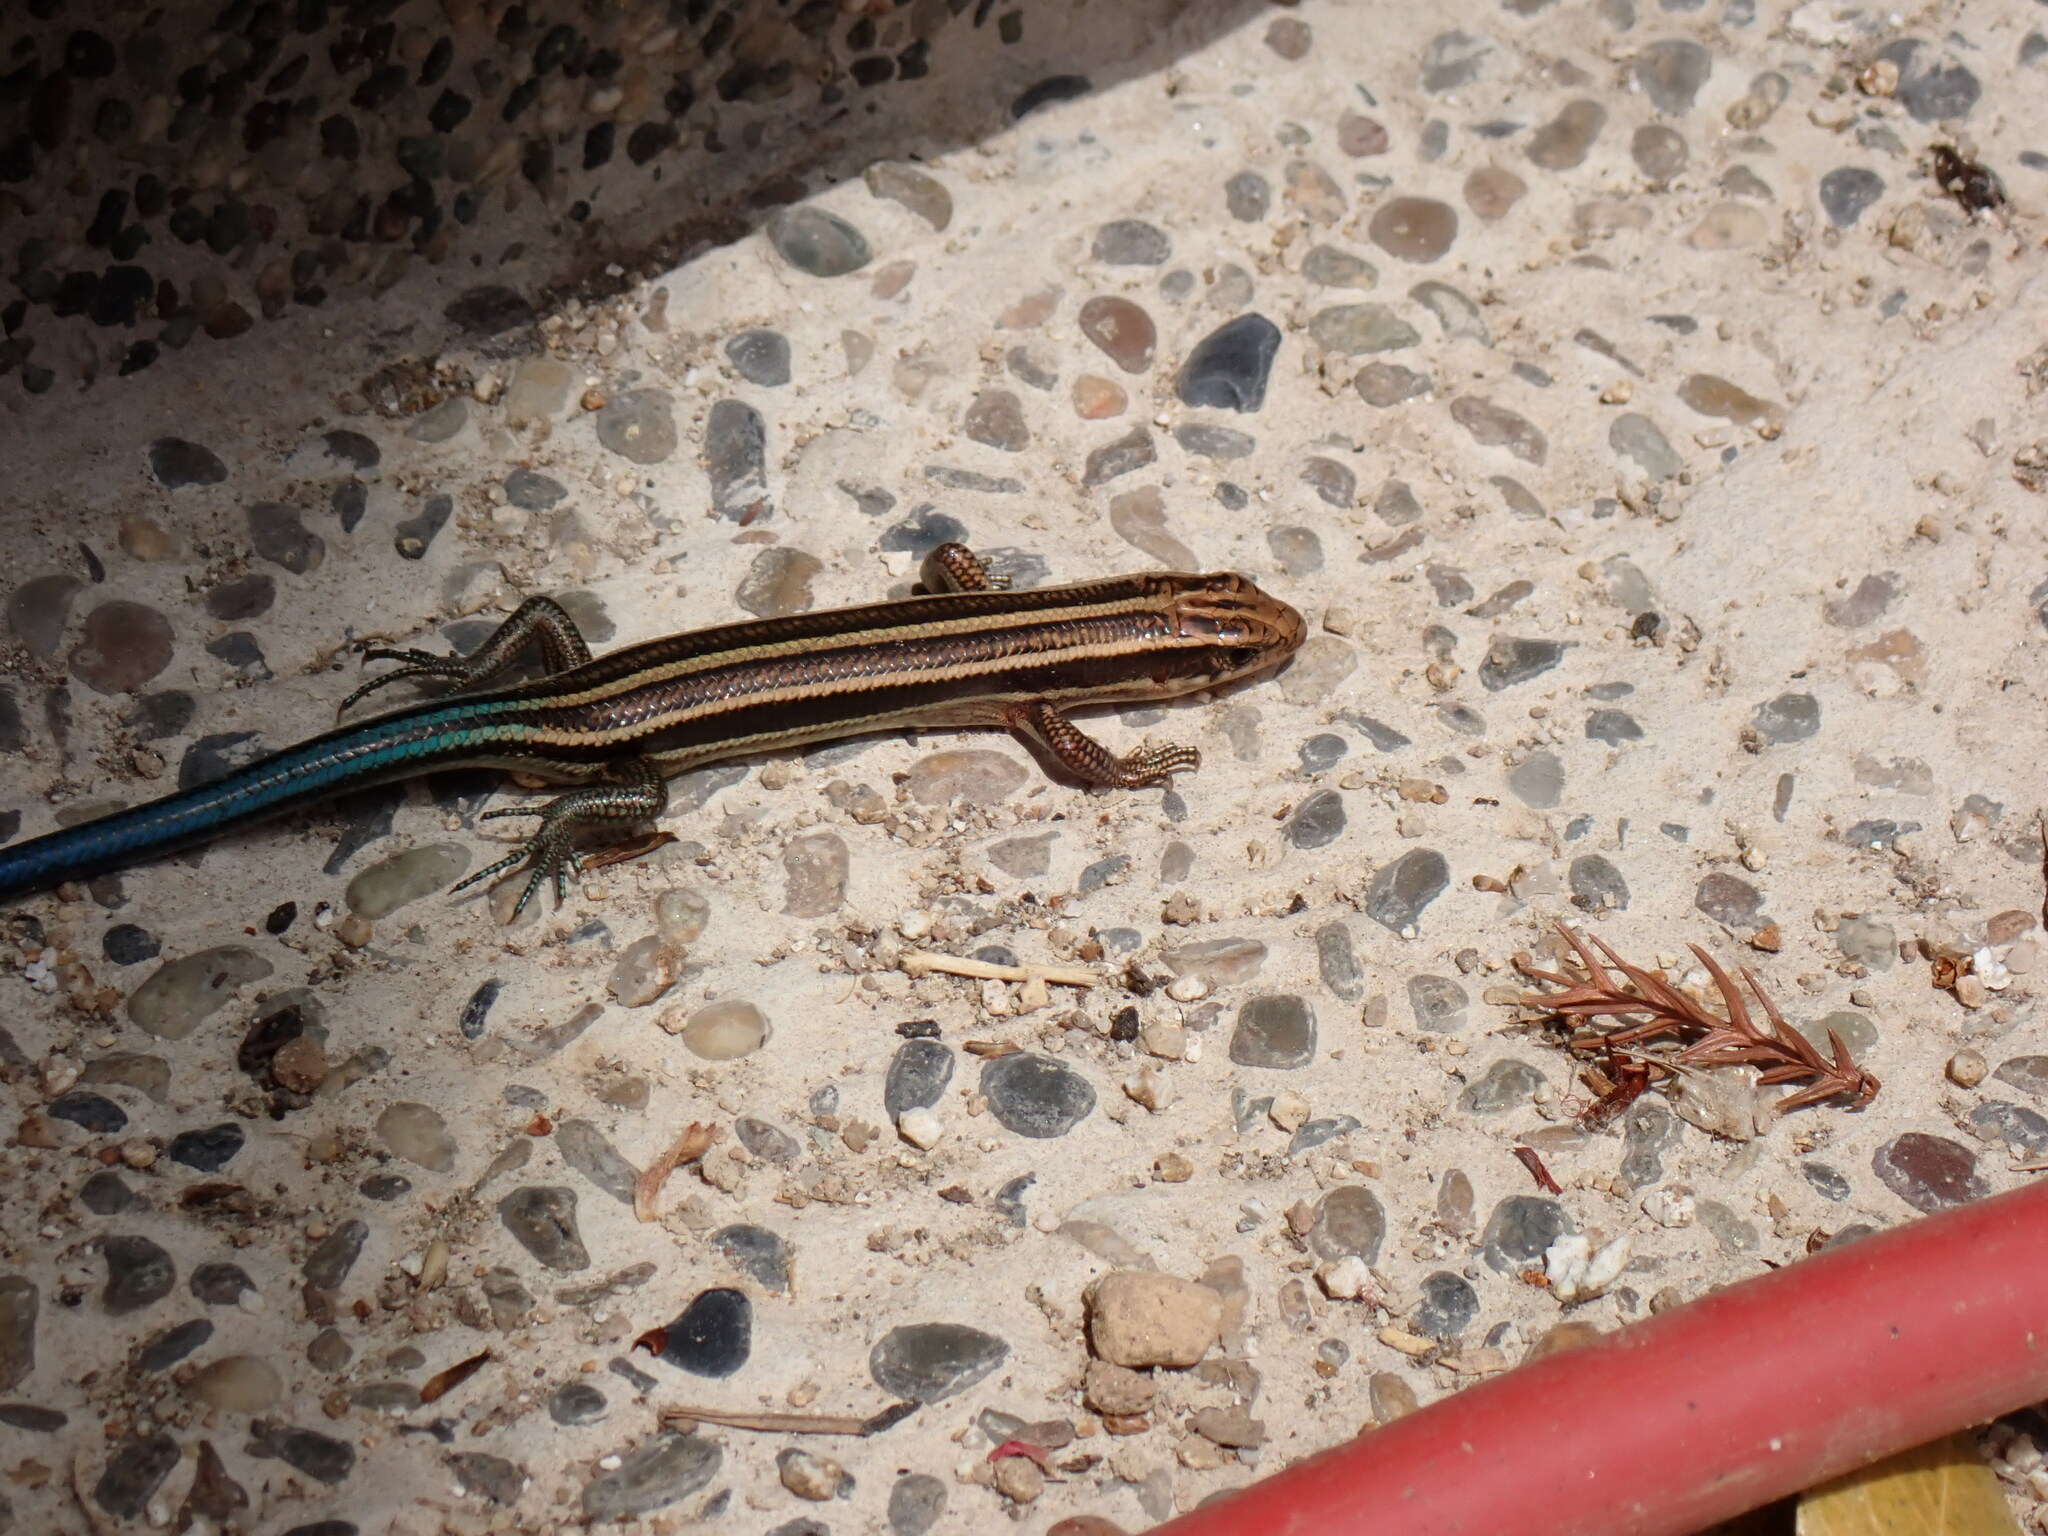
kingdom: Animalia
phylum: Chordata
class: Squamata
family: Scincidae
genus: Plestiodon
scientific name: Plestiodon japonicus
